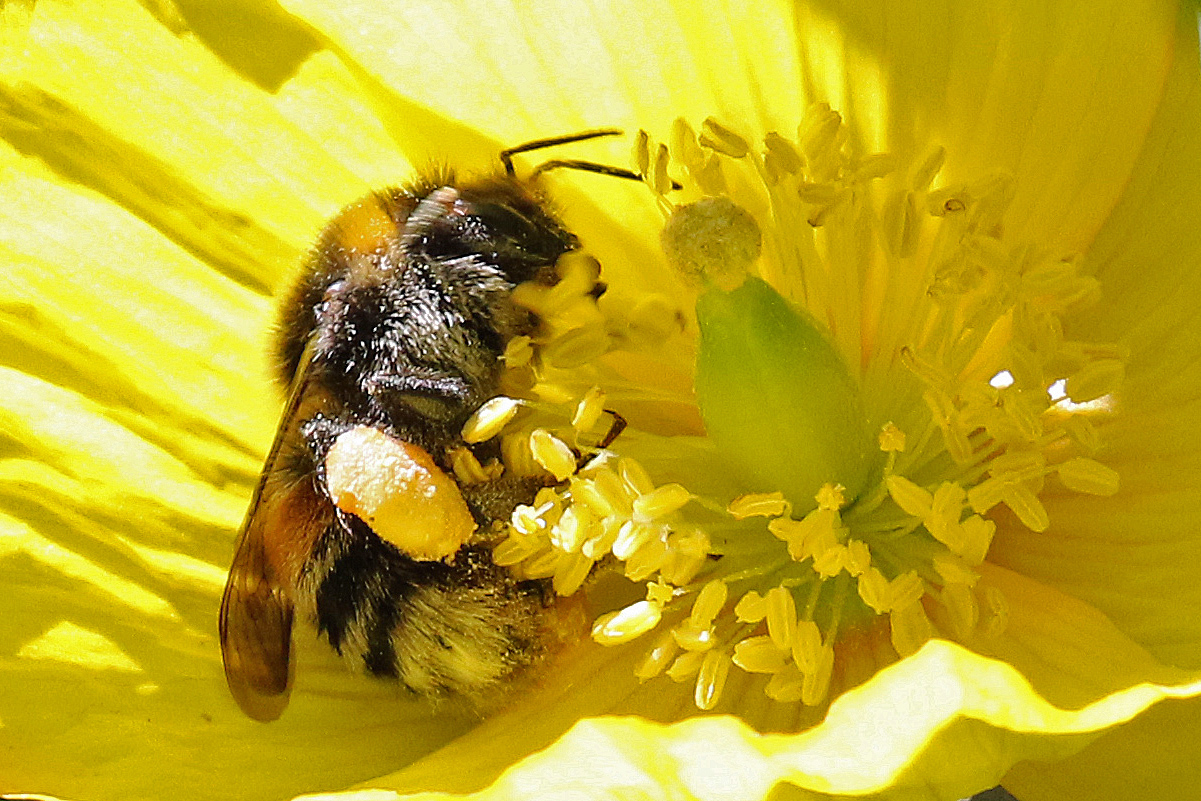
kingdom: Animalia
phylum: Arthropoda
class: Insecta
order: Hymenoptera
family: Apidae
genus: Bombus
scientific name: Bombus terrestris
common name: Buff-tailed bumblebee
